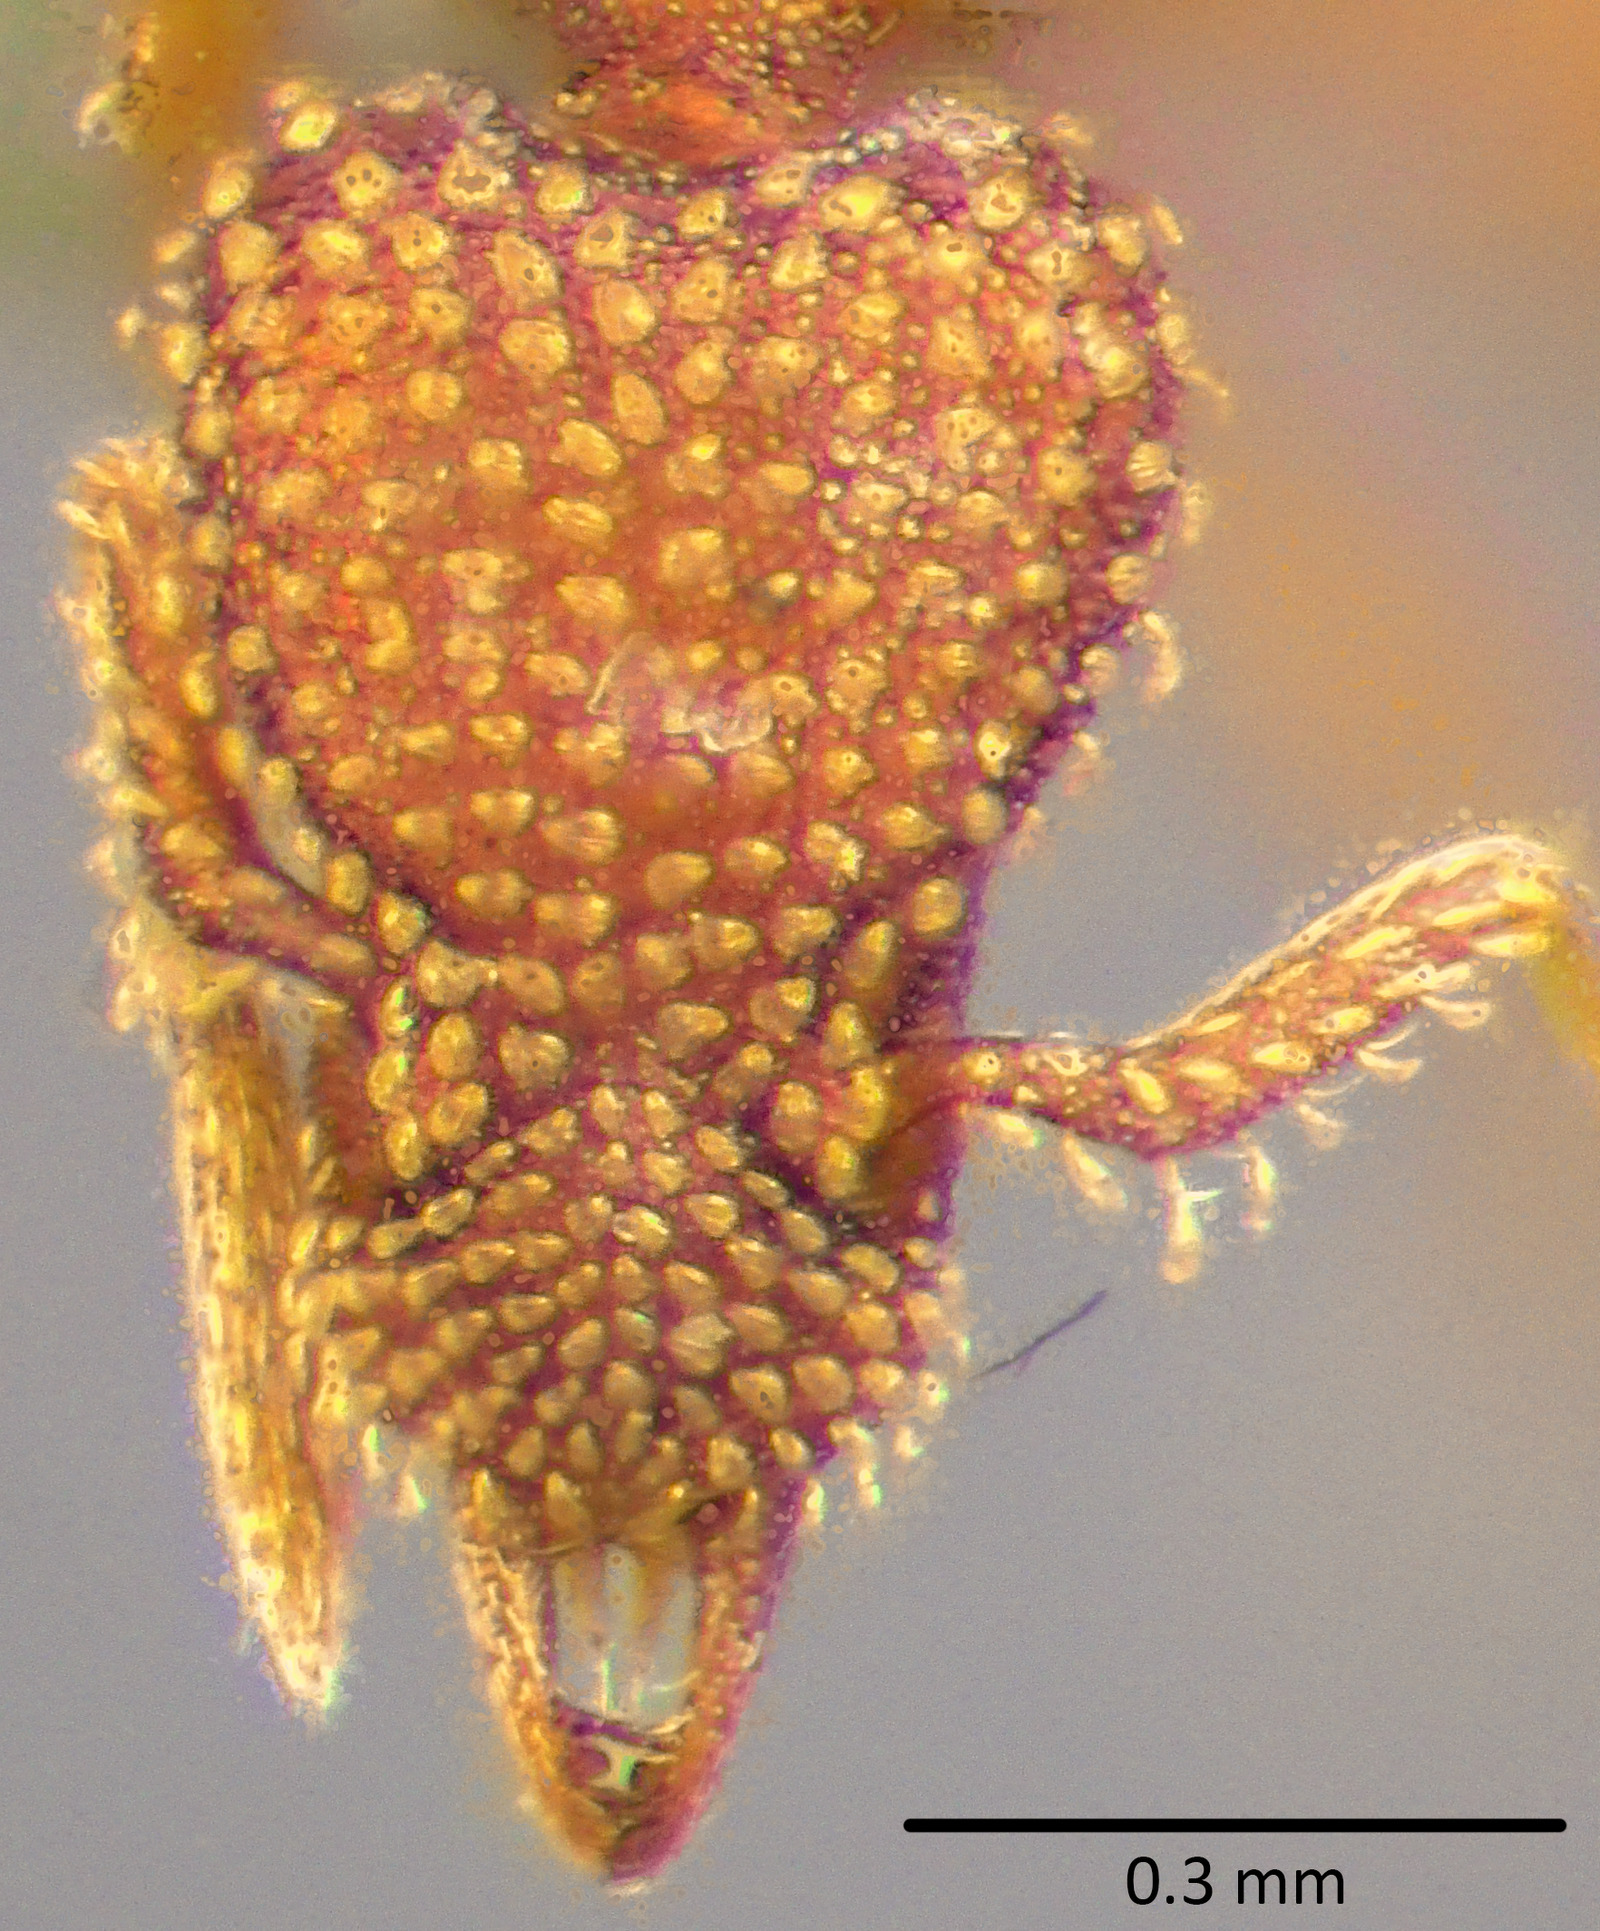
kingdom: Animalia
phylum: Arthropoda
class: Insecta
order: Hymenoptera
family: Formicidae
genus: Strumigenys
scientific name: Strumigenys pergandei
